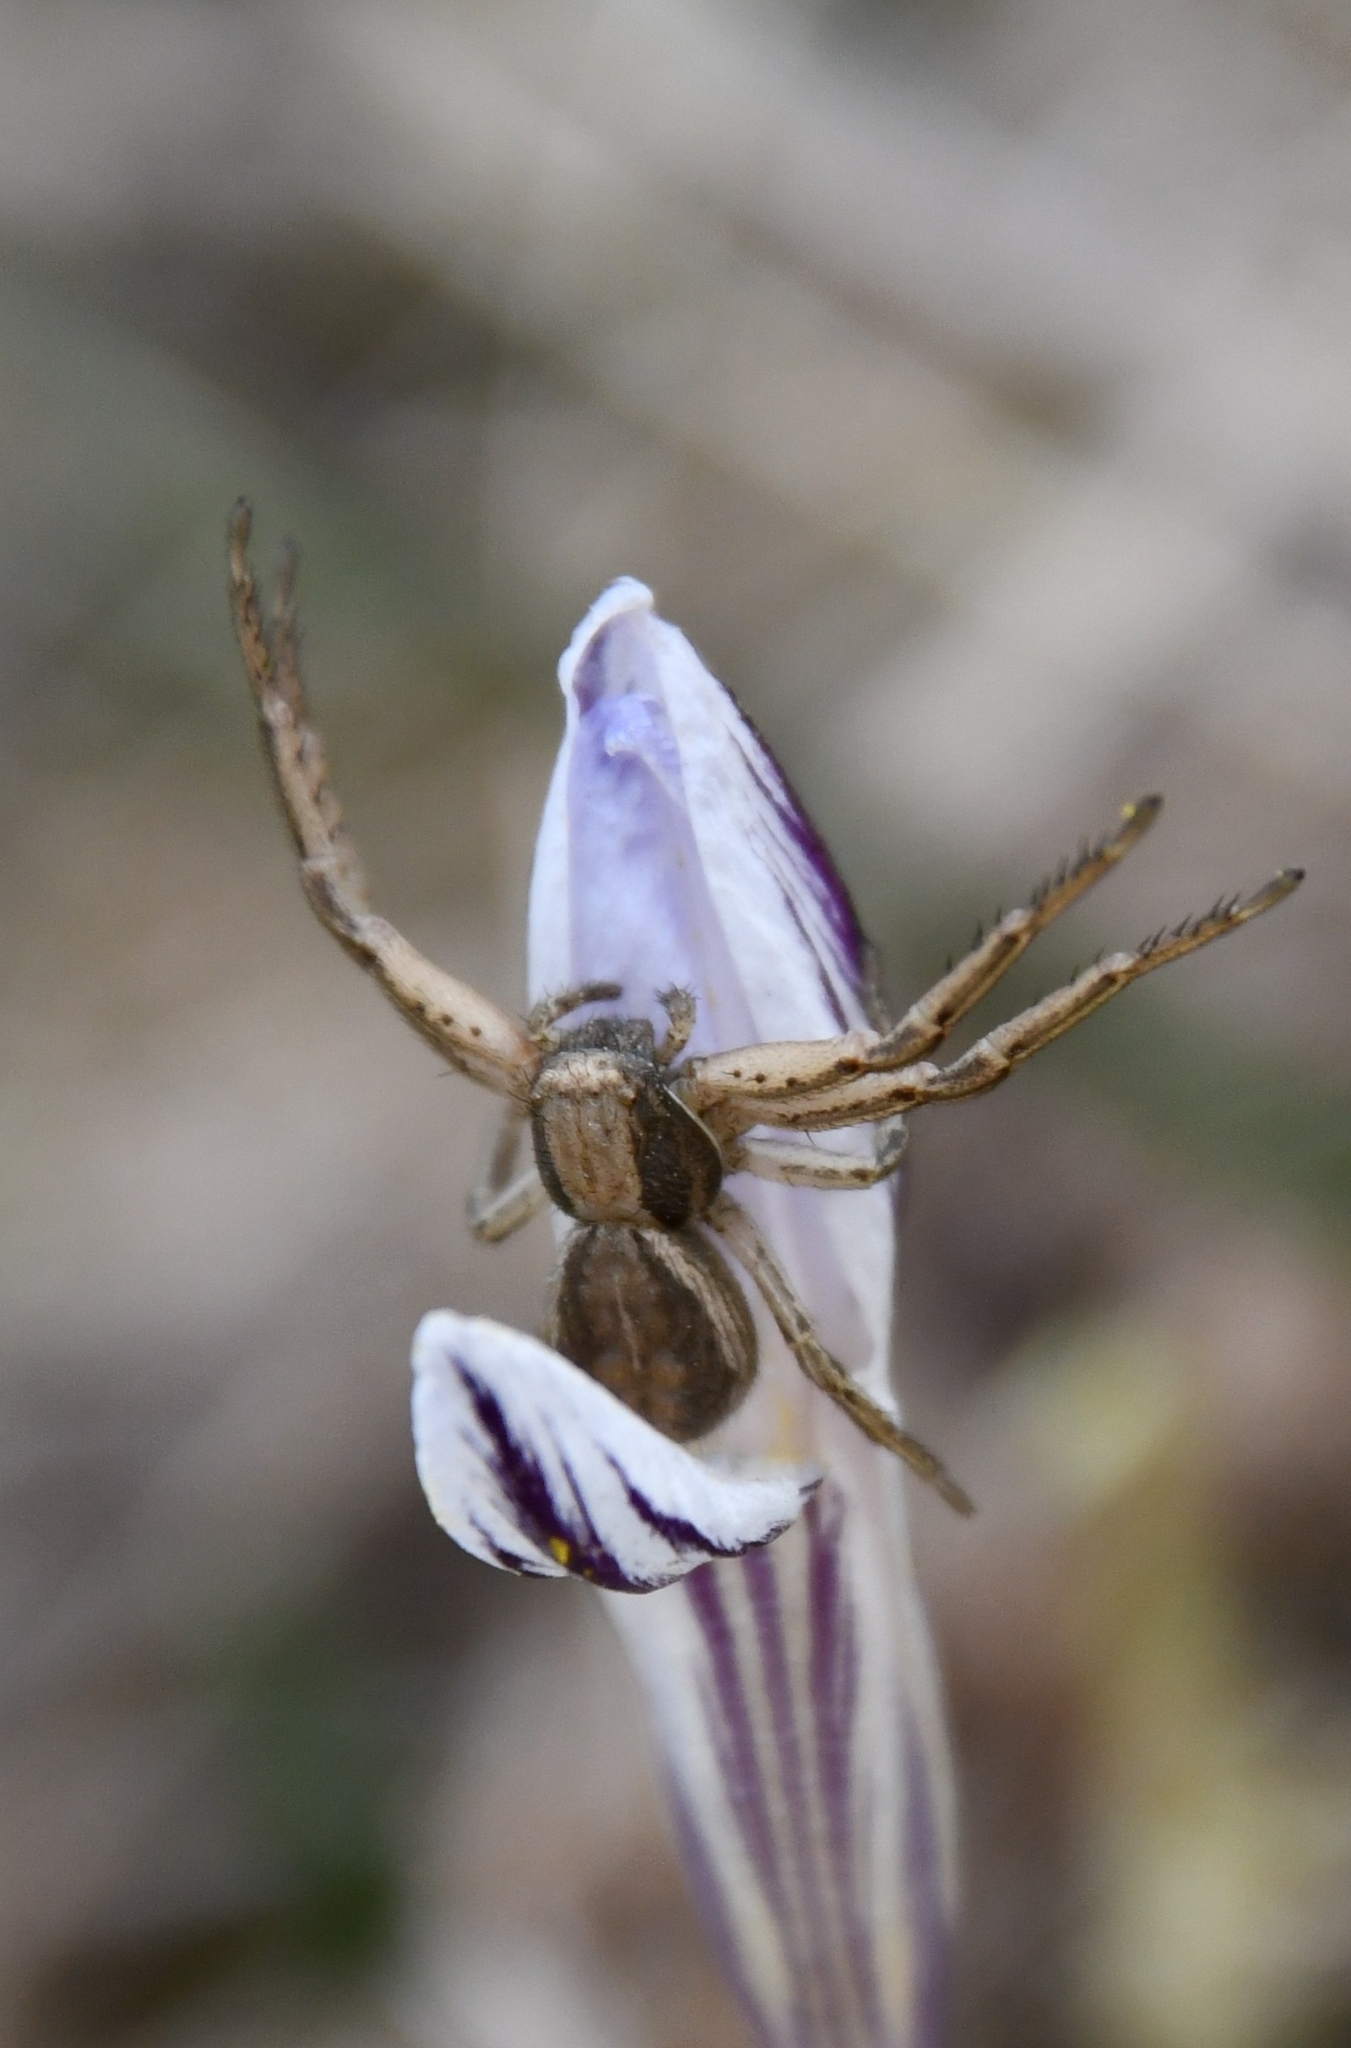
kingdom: Animalia
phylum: Arthropoda
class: Arachnida
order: Araneae
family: Thomisidae
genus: Spiracme
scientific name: Spiracme striatipes
